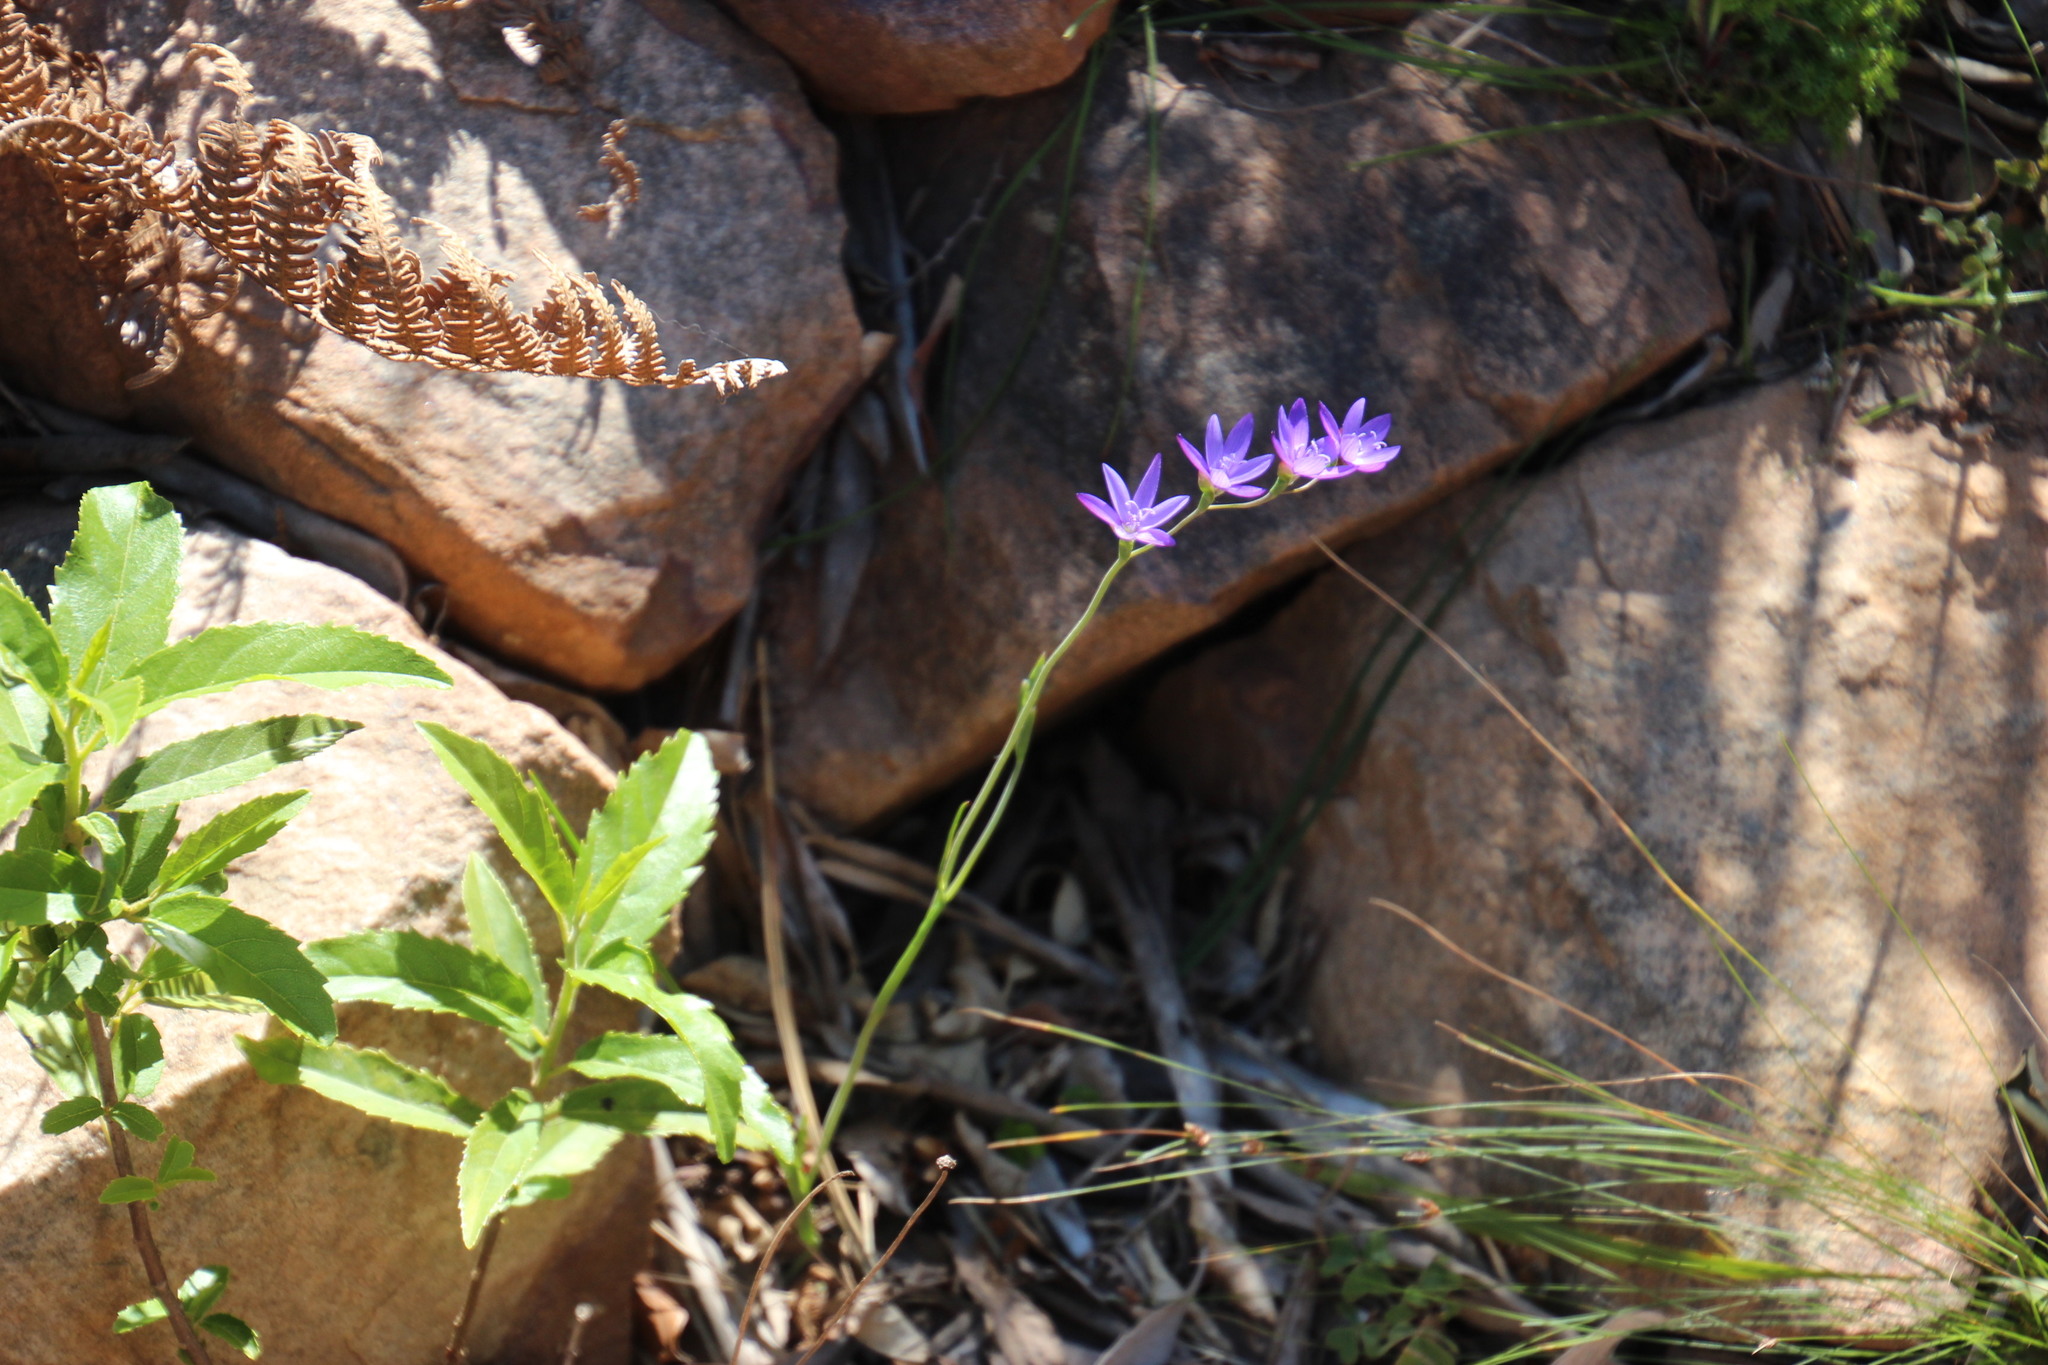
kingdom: Plantae
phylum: Tracheophyta
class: Liliopsida
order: Asparagales
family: Iridaceae
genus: Geissorhiza
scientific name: Geissorhiza aspera
